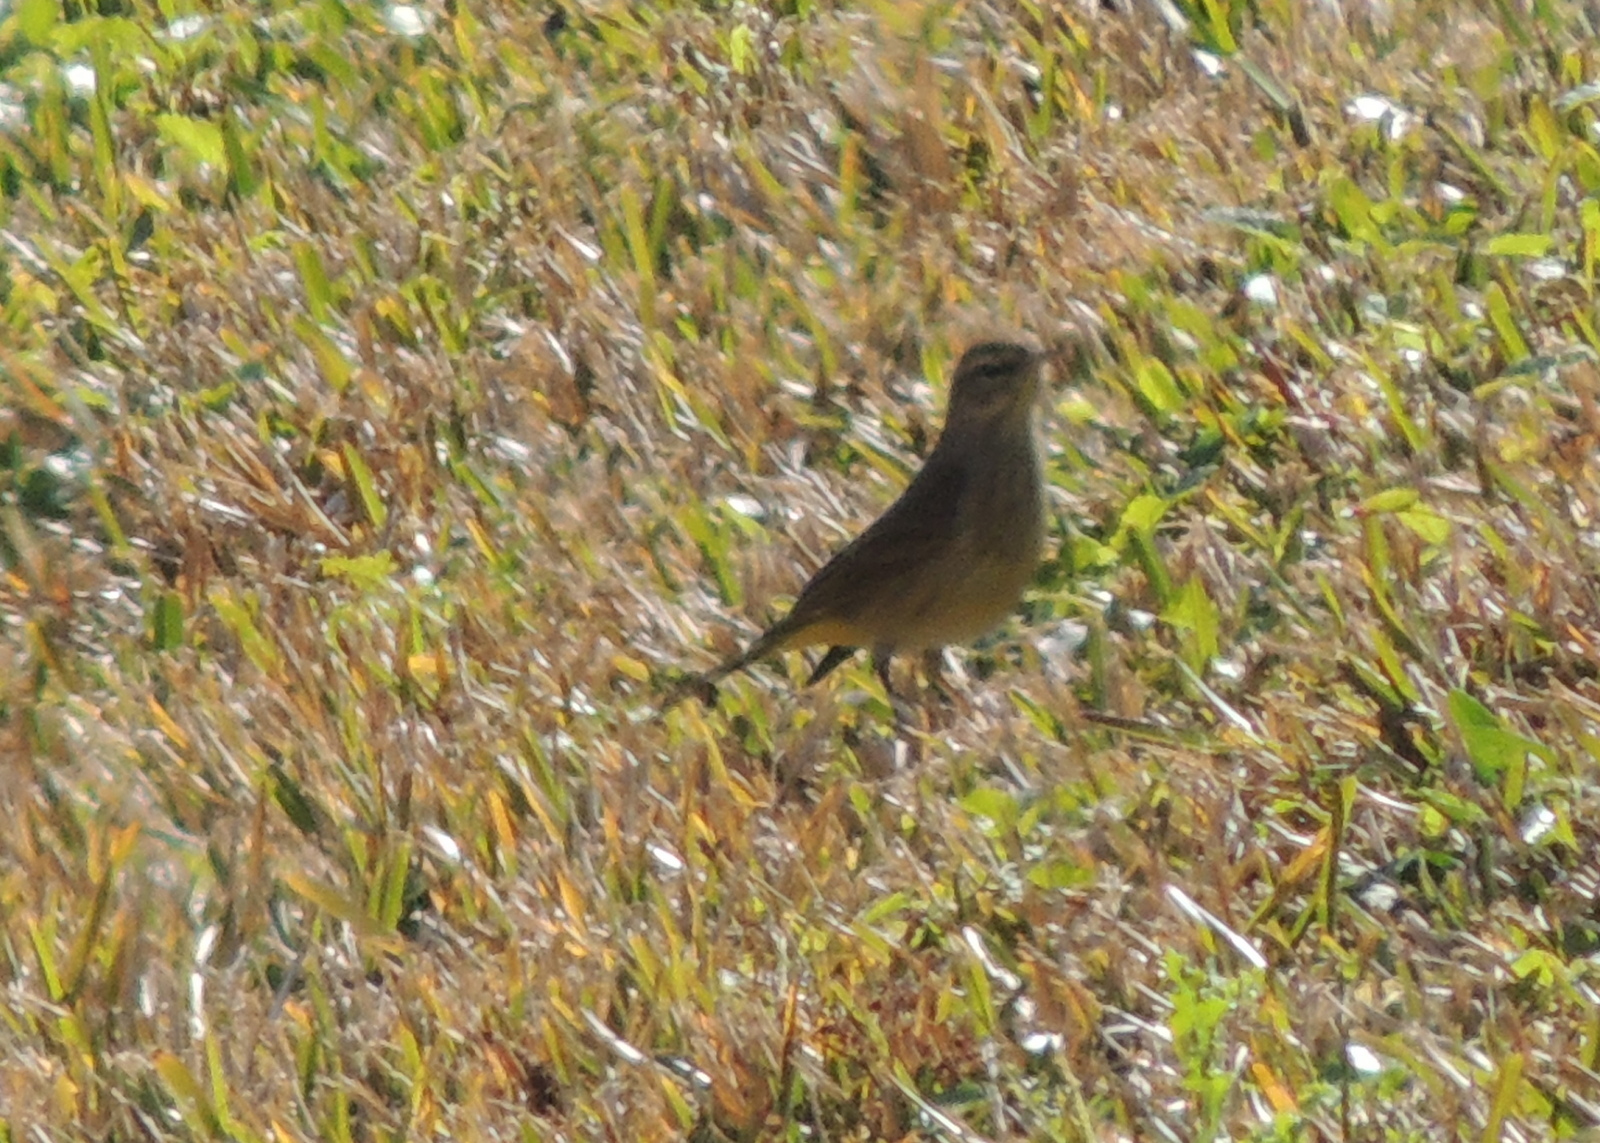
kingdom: Animalia
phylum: Chordata
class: Aves
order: Passeriformes
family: Parulidae
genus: Setophaga
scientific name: Setophaga palmarum
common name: Palm warbler
